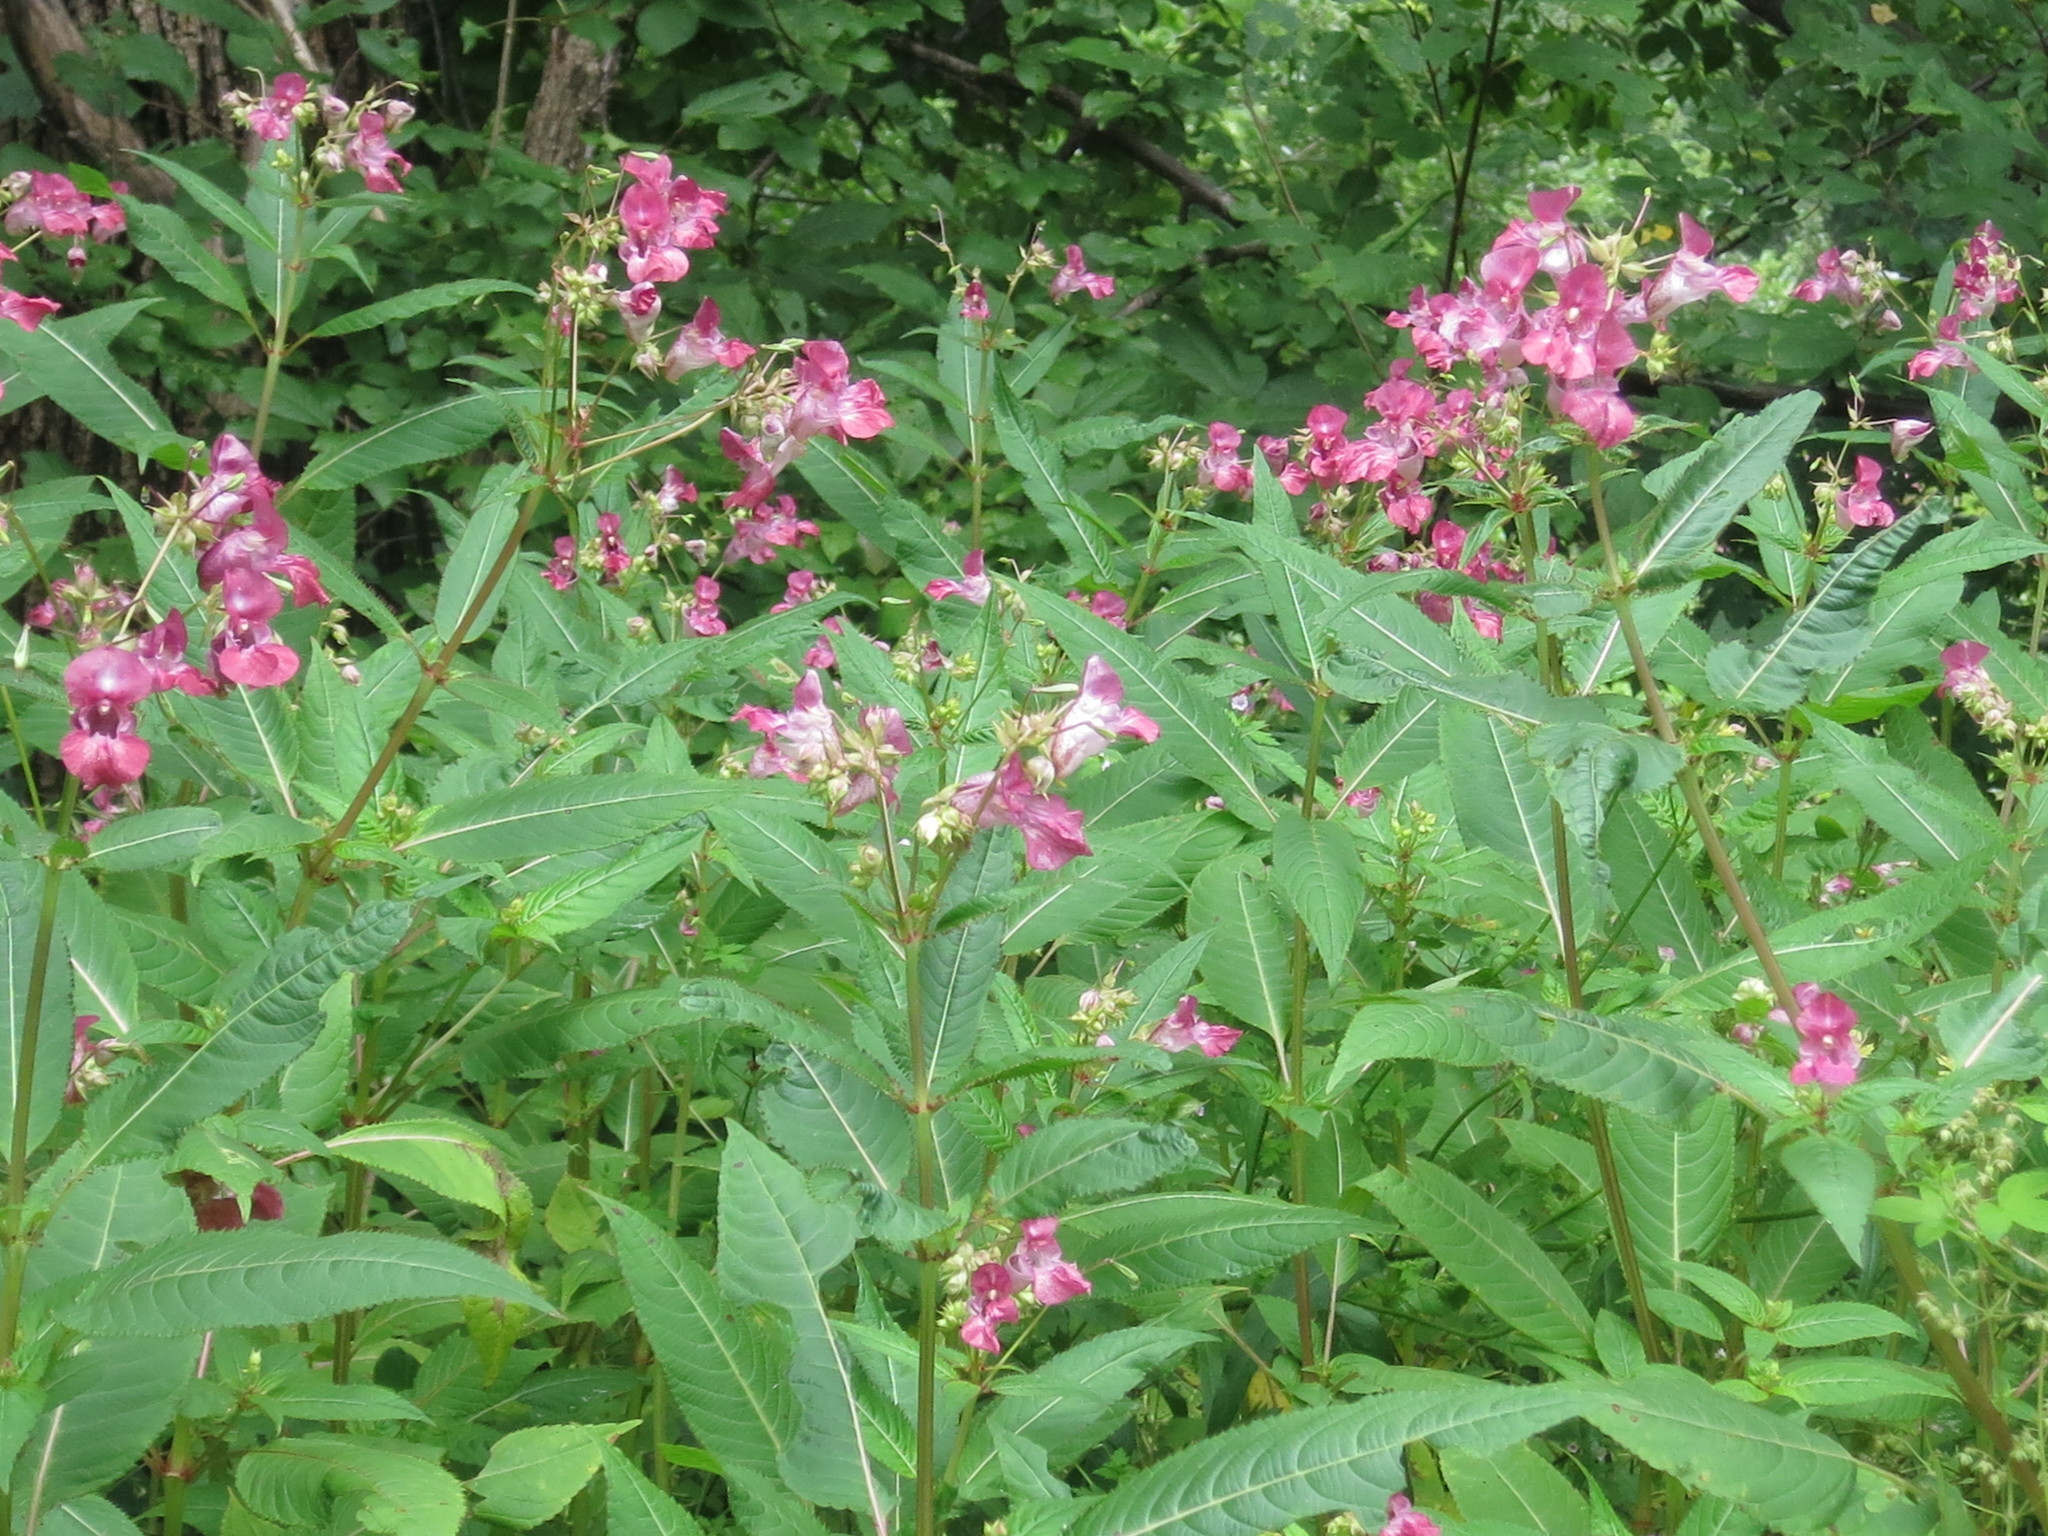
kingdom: Plantae
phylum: Tracheophyta
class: Magnoliopsida
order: Ericales
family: Balsaminaceae
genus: Impatiens
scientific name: Impatiens glandulifera
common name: Himalayan balsam
